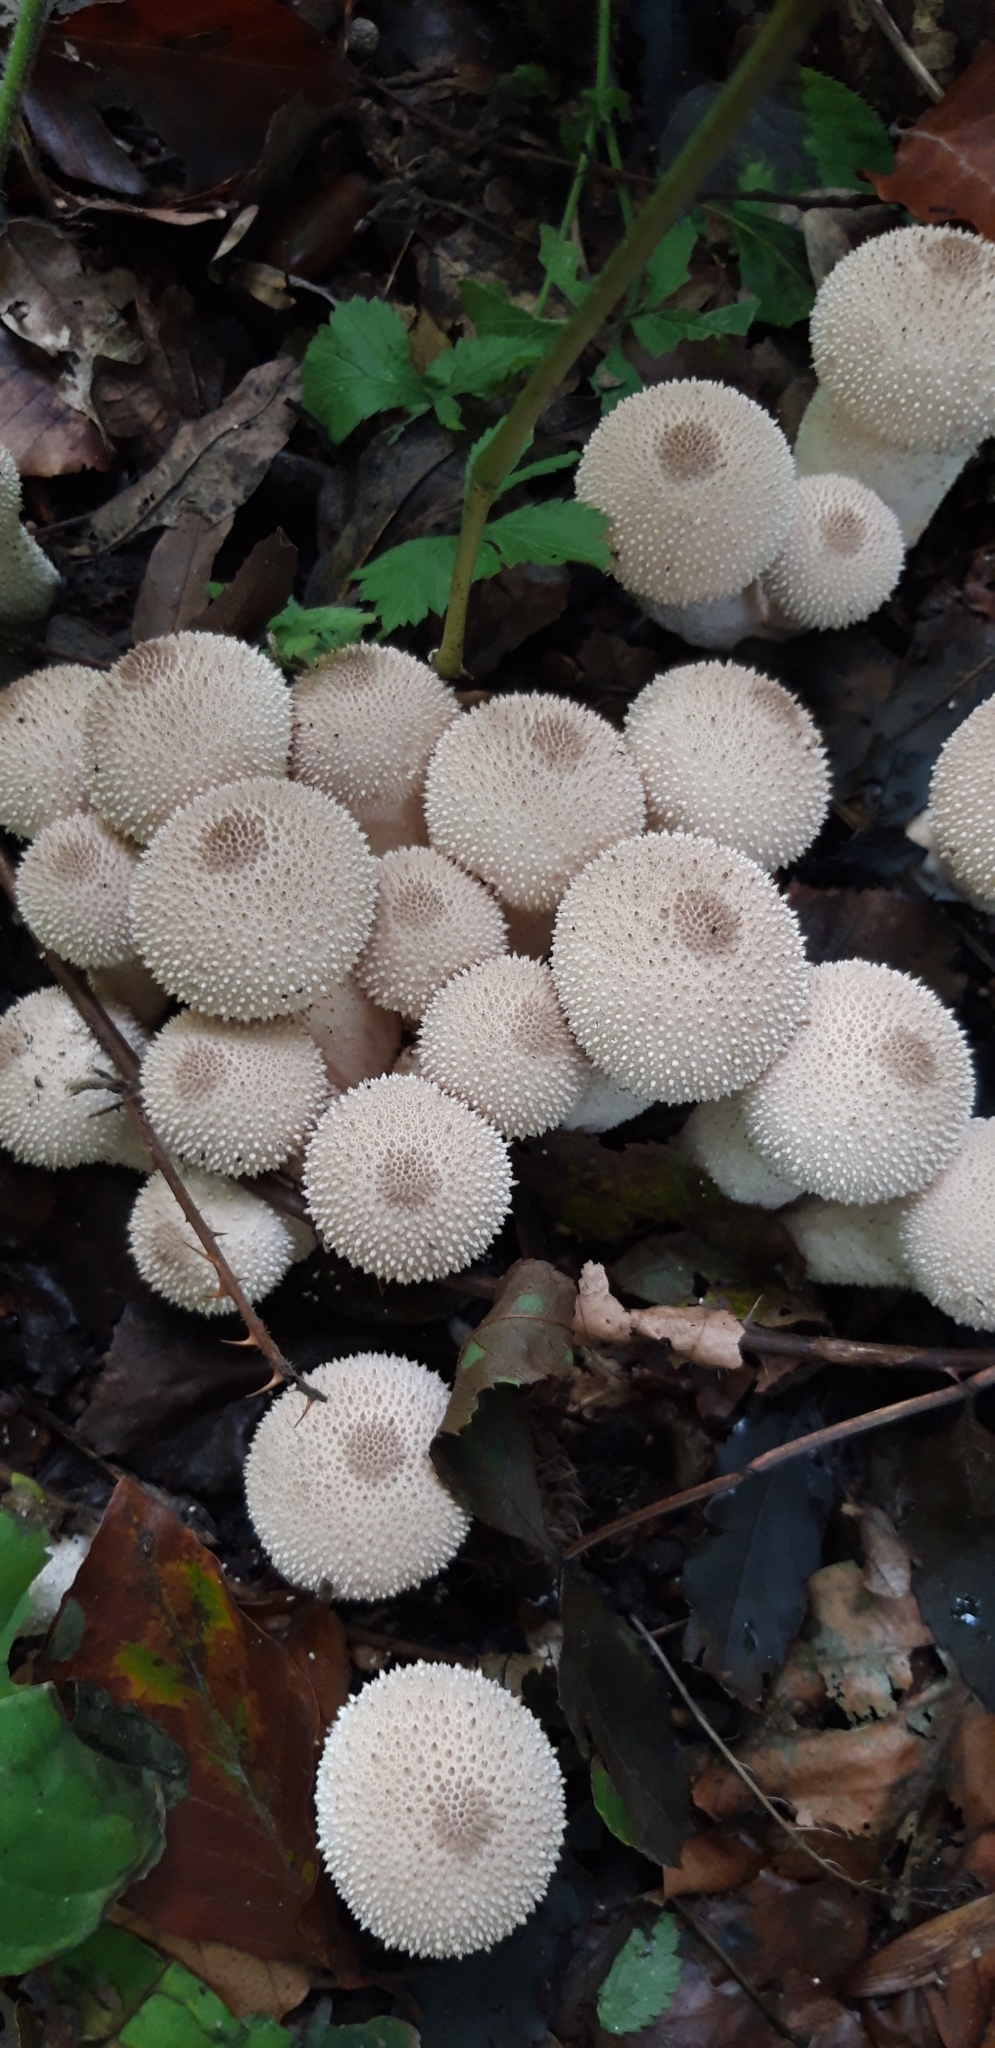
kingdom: Fungi
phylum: Basidiomycota
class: Agaricomycetes
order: Agaricales
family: Lycoperdaceae
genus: Lycoperdon
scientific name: Lycoperdon perlatum
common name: Common puffball
